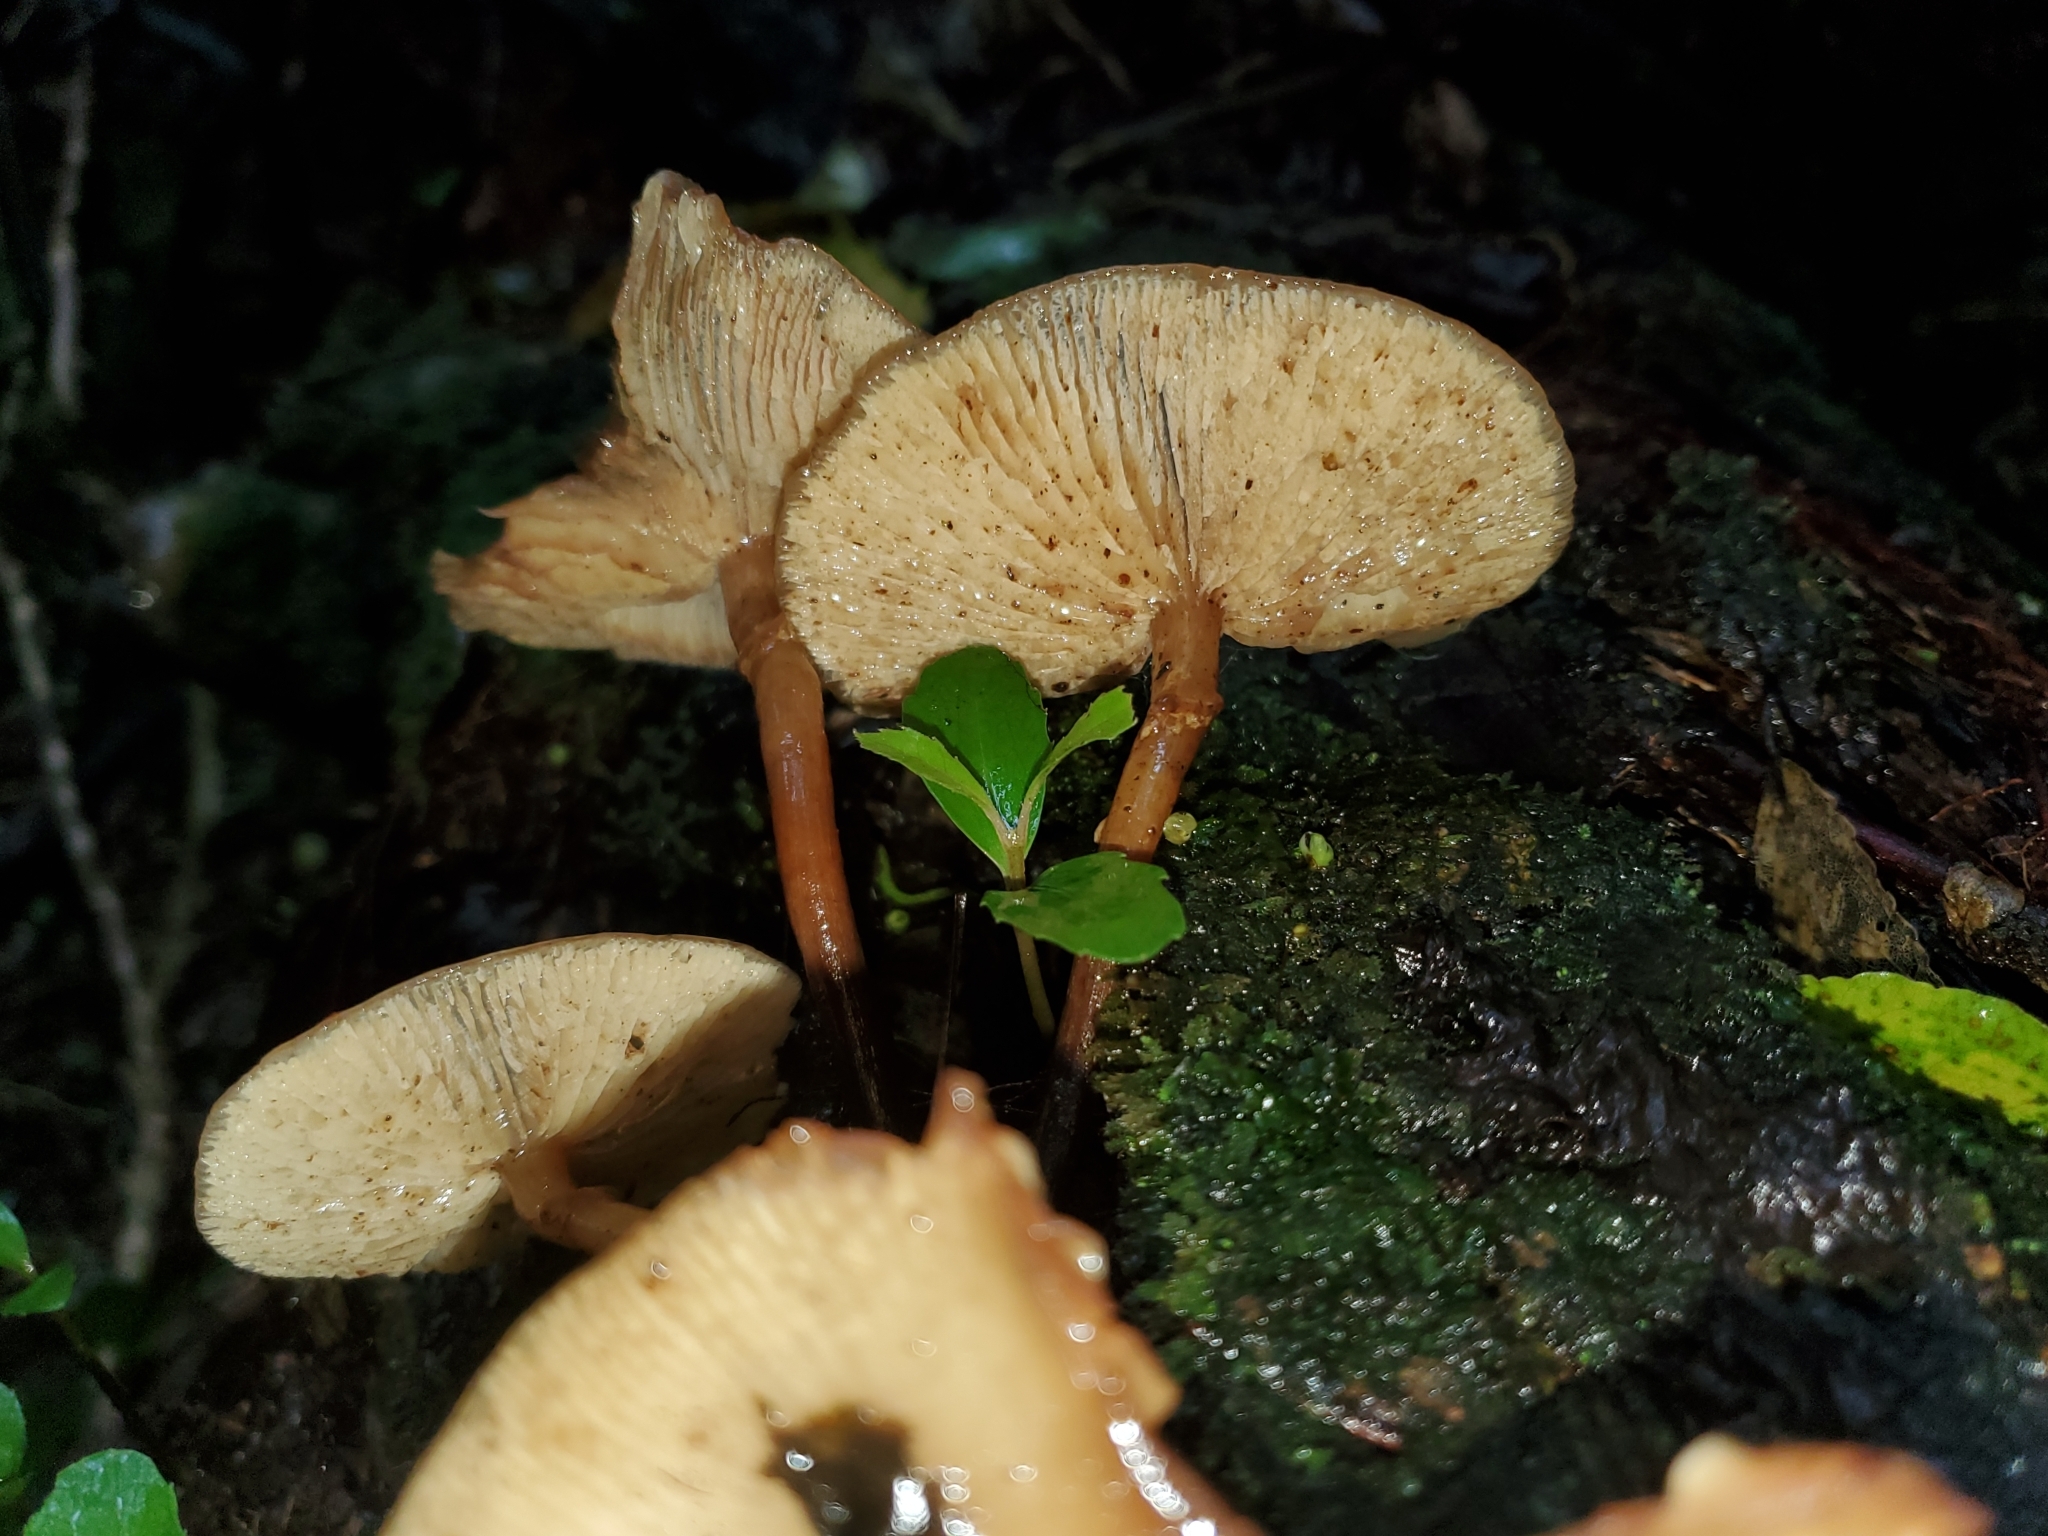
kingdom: Fungi
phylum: Basidiomycota
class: Agaricomycetes
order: Agaricales
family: Physalacriaceae
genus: Armillaria
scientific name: Armillaria novae-zelandiae
